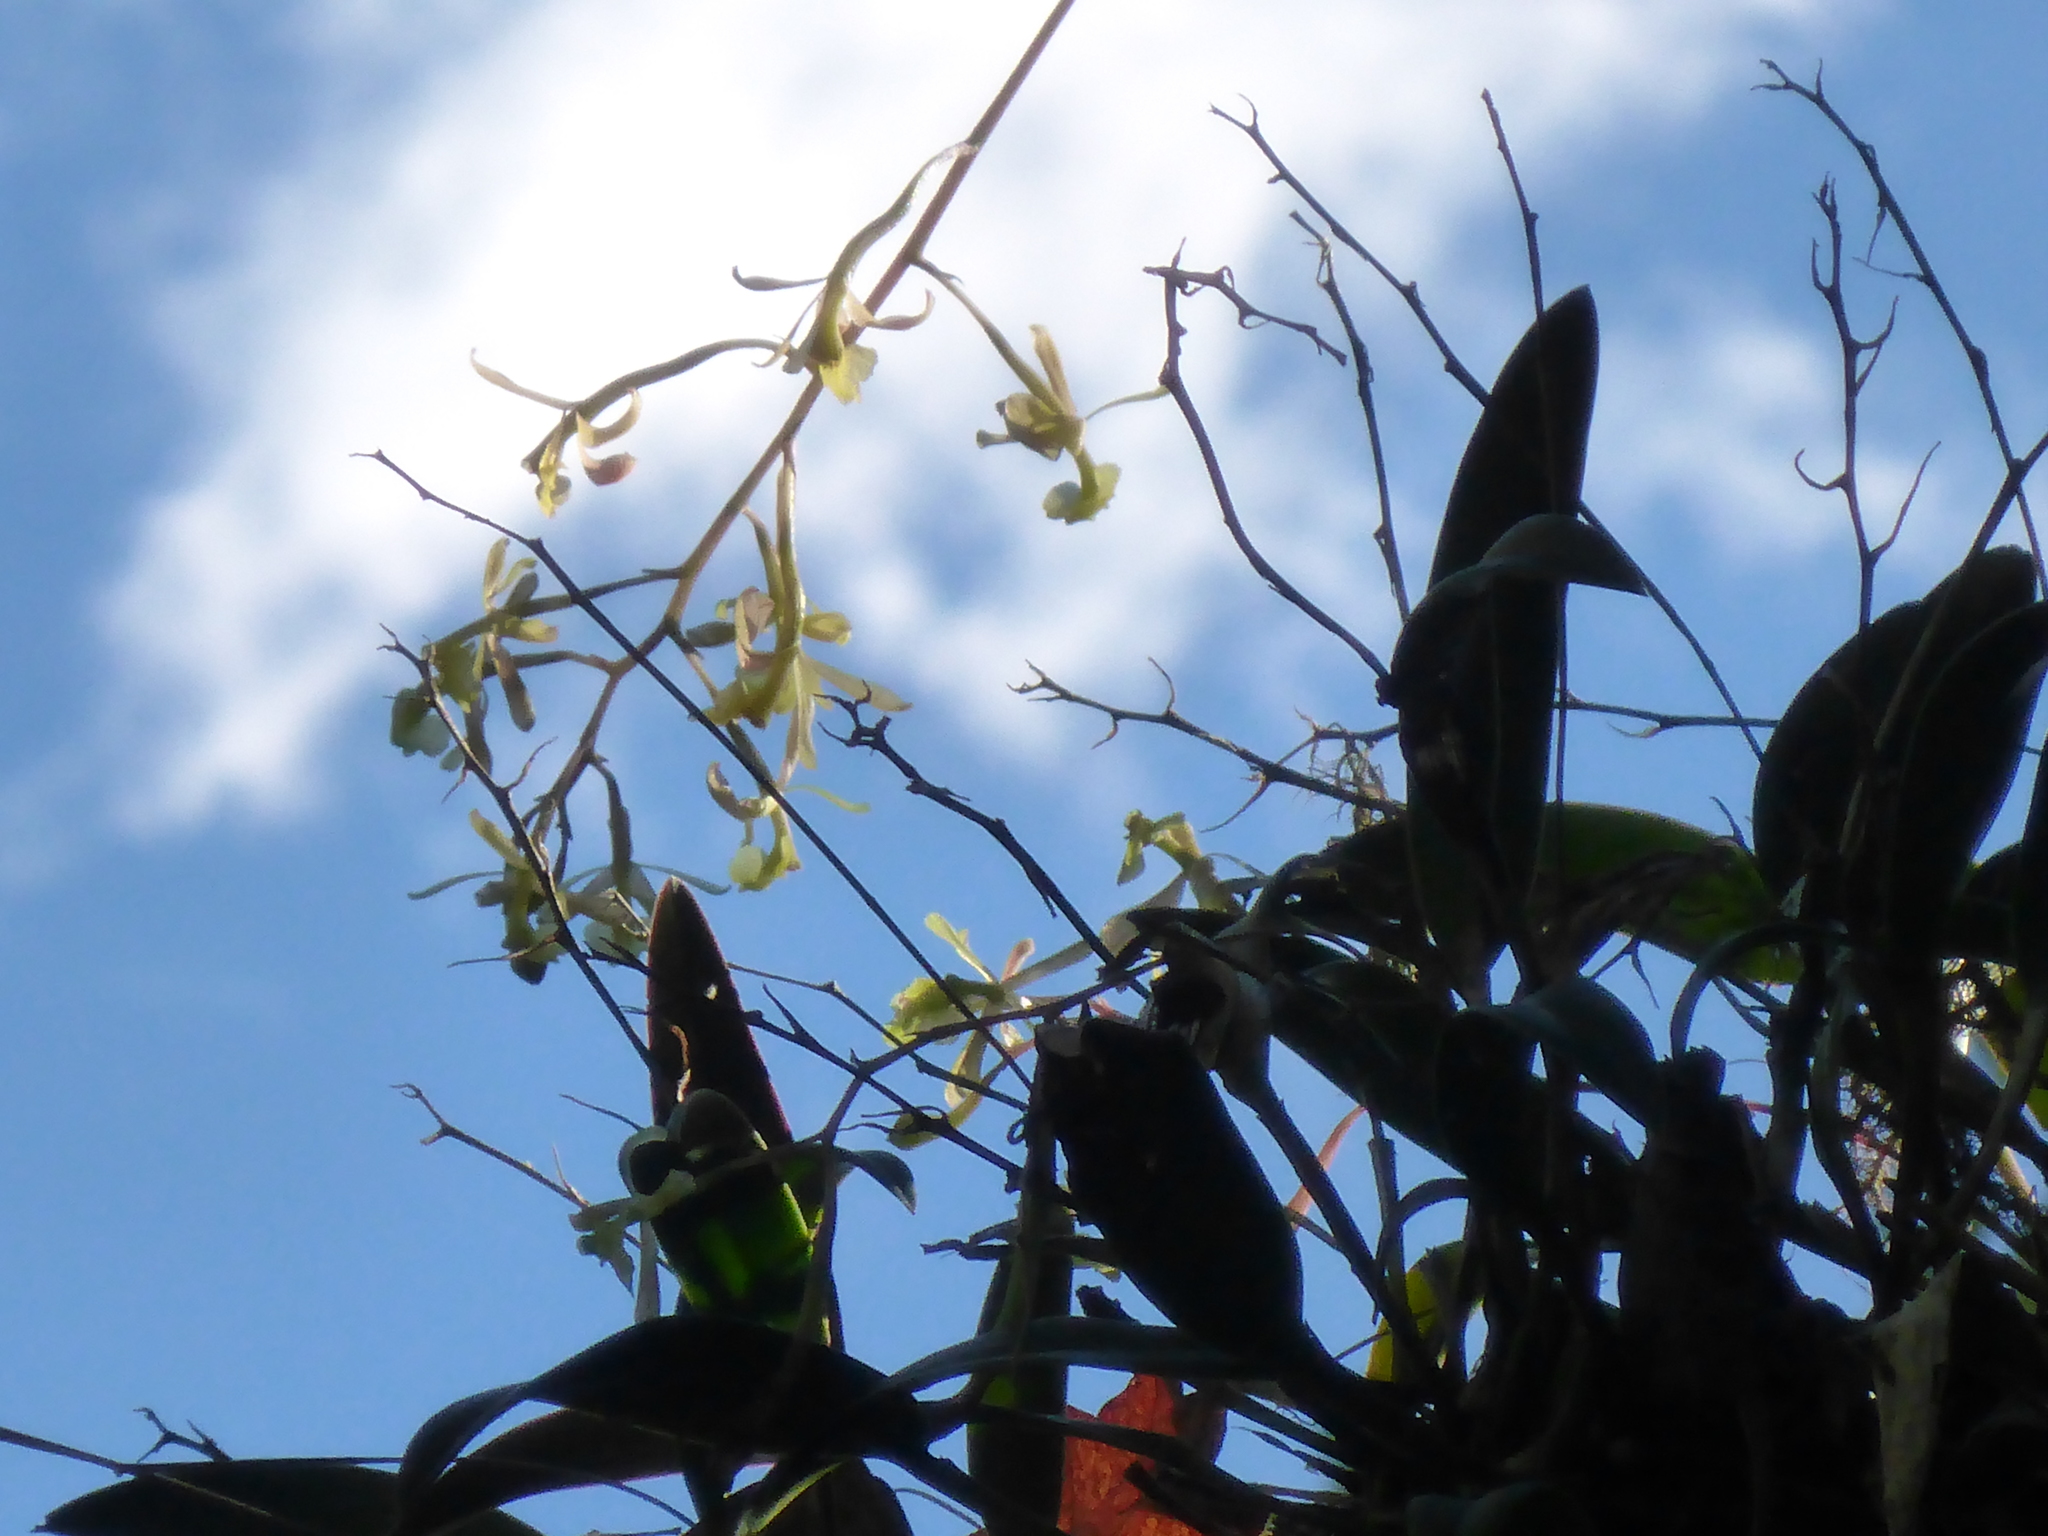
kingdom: Plantae
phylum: Tracheophyta
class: Liliopsida
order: Asparagales
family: Orchidaceae
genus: Epidendrum
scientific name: Epidendrum conopseum
